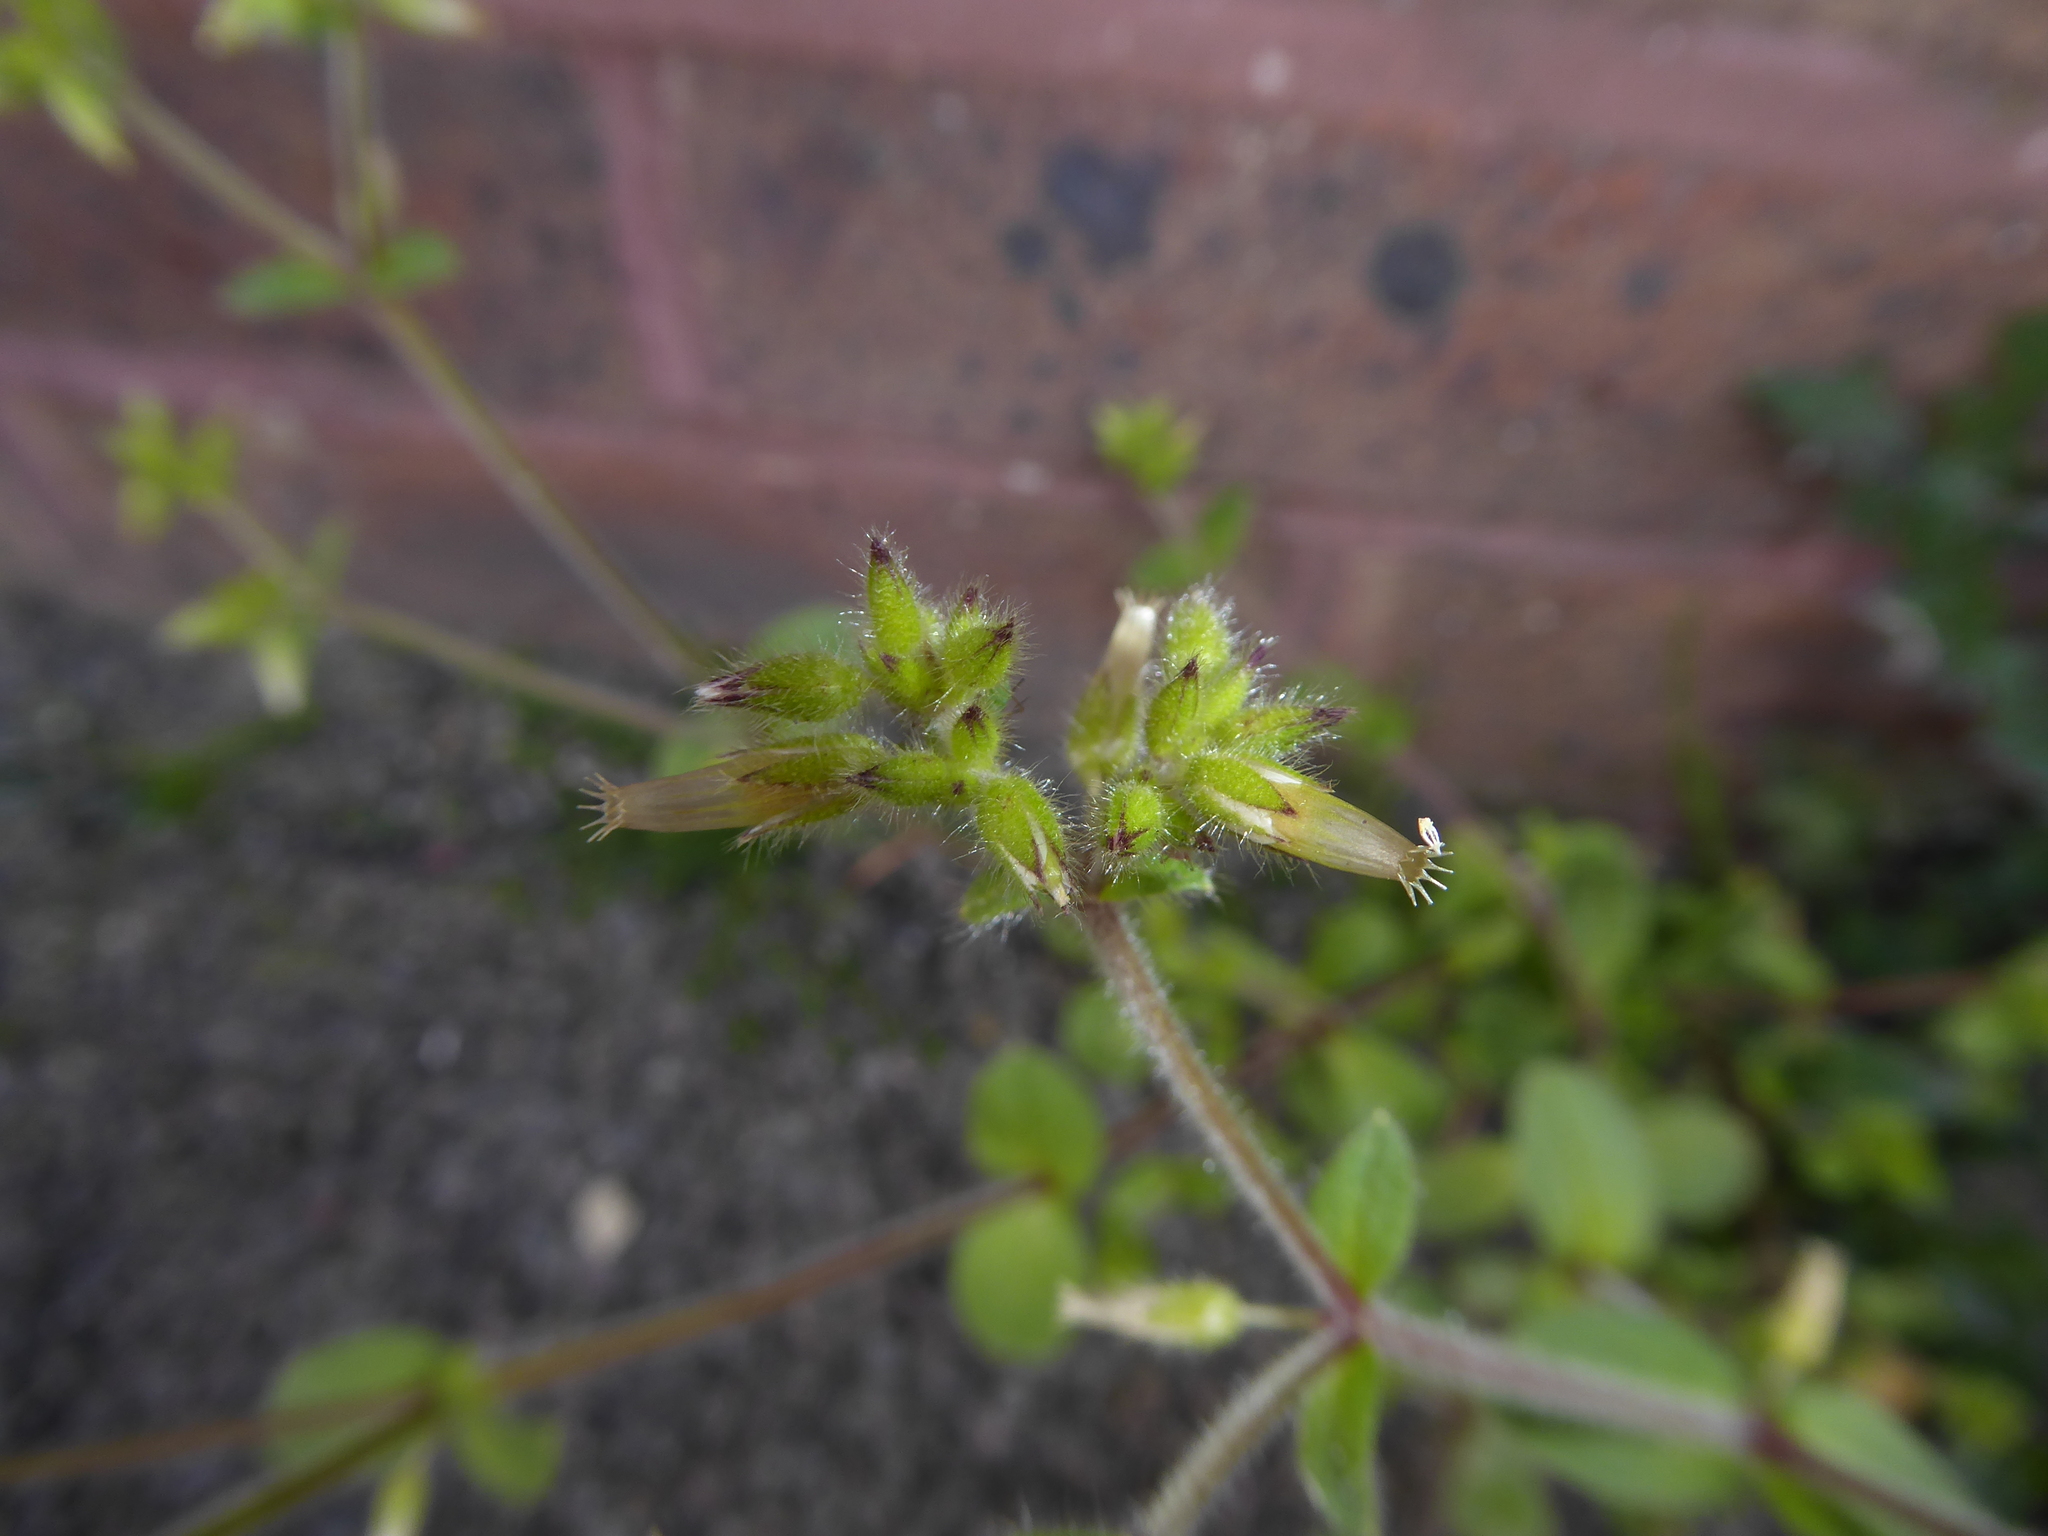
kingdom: Plantae
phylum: Tracheophyta
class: Magnoliopsida
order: Caryophyllales
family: Caryophyllaceae
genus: Cerastium
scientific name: Cerastium glomeratum
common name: Sticky chickweed
